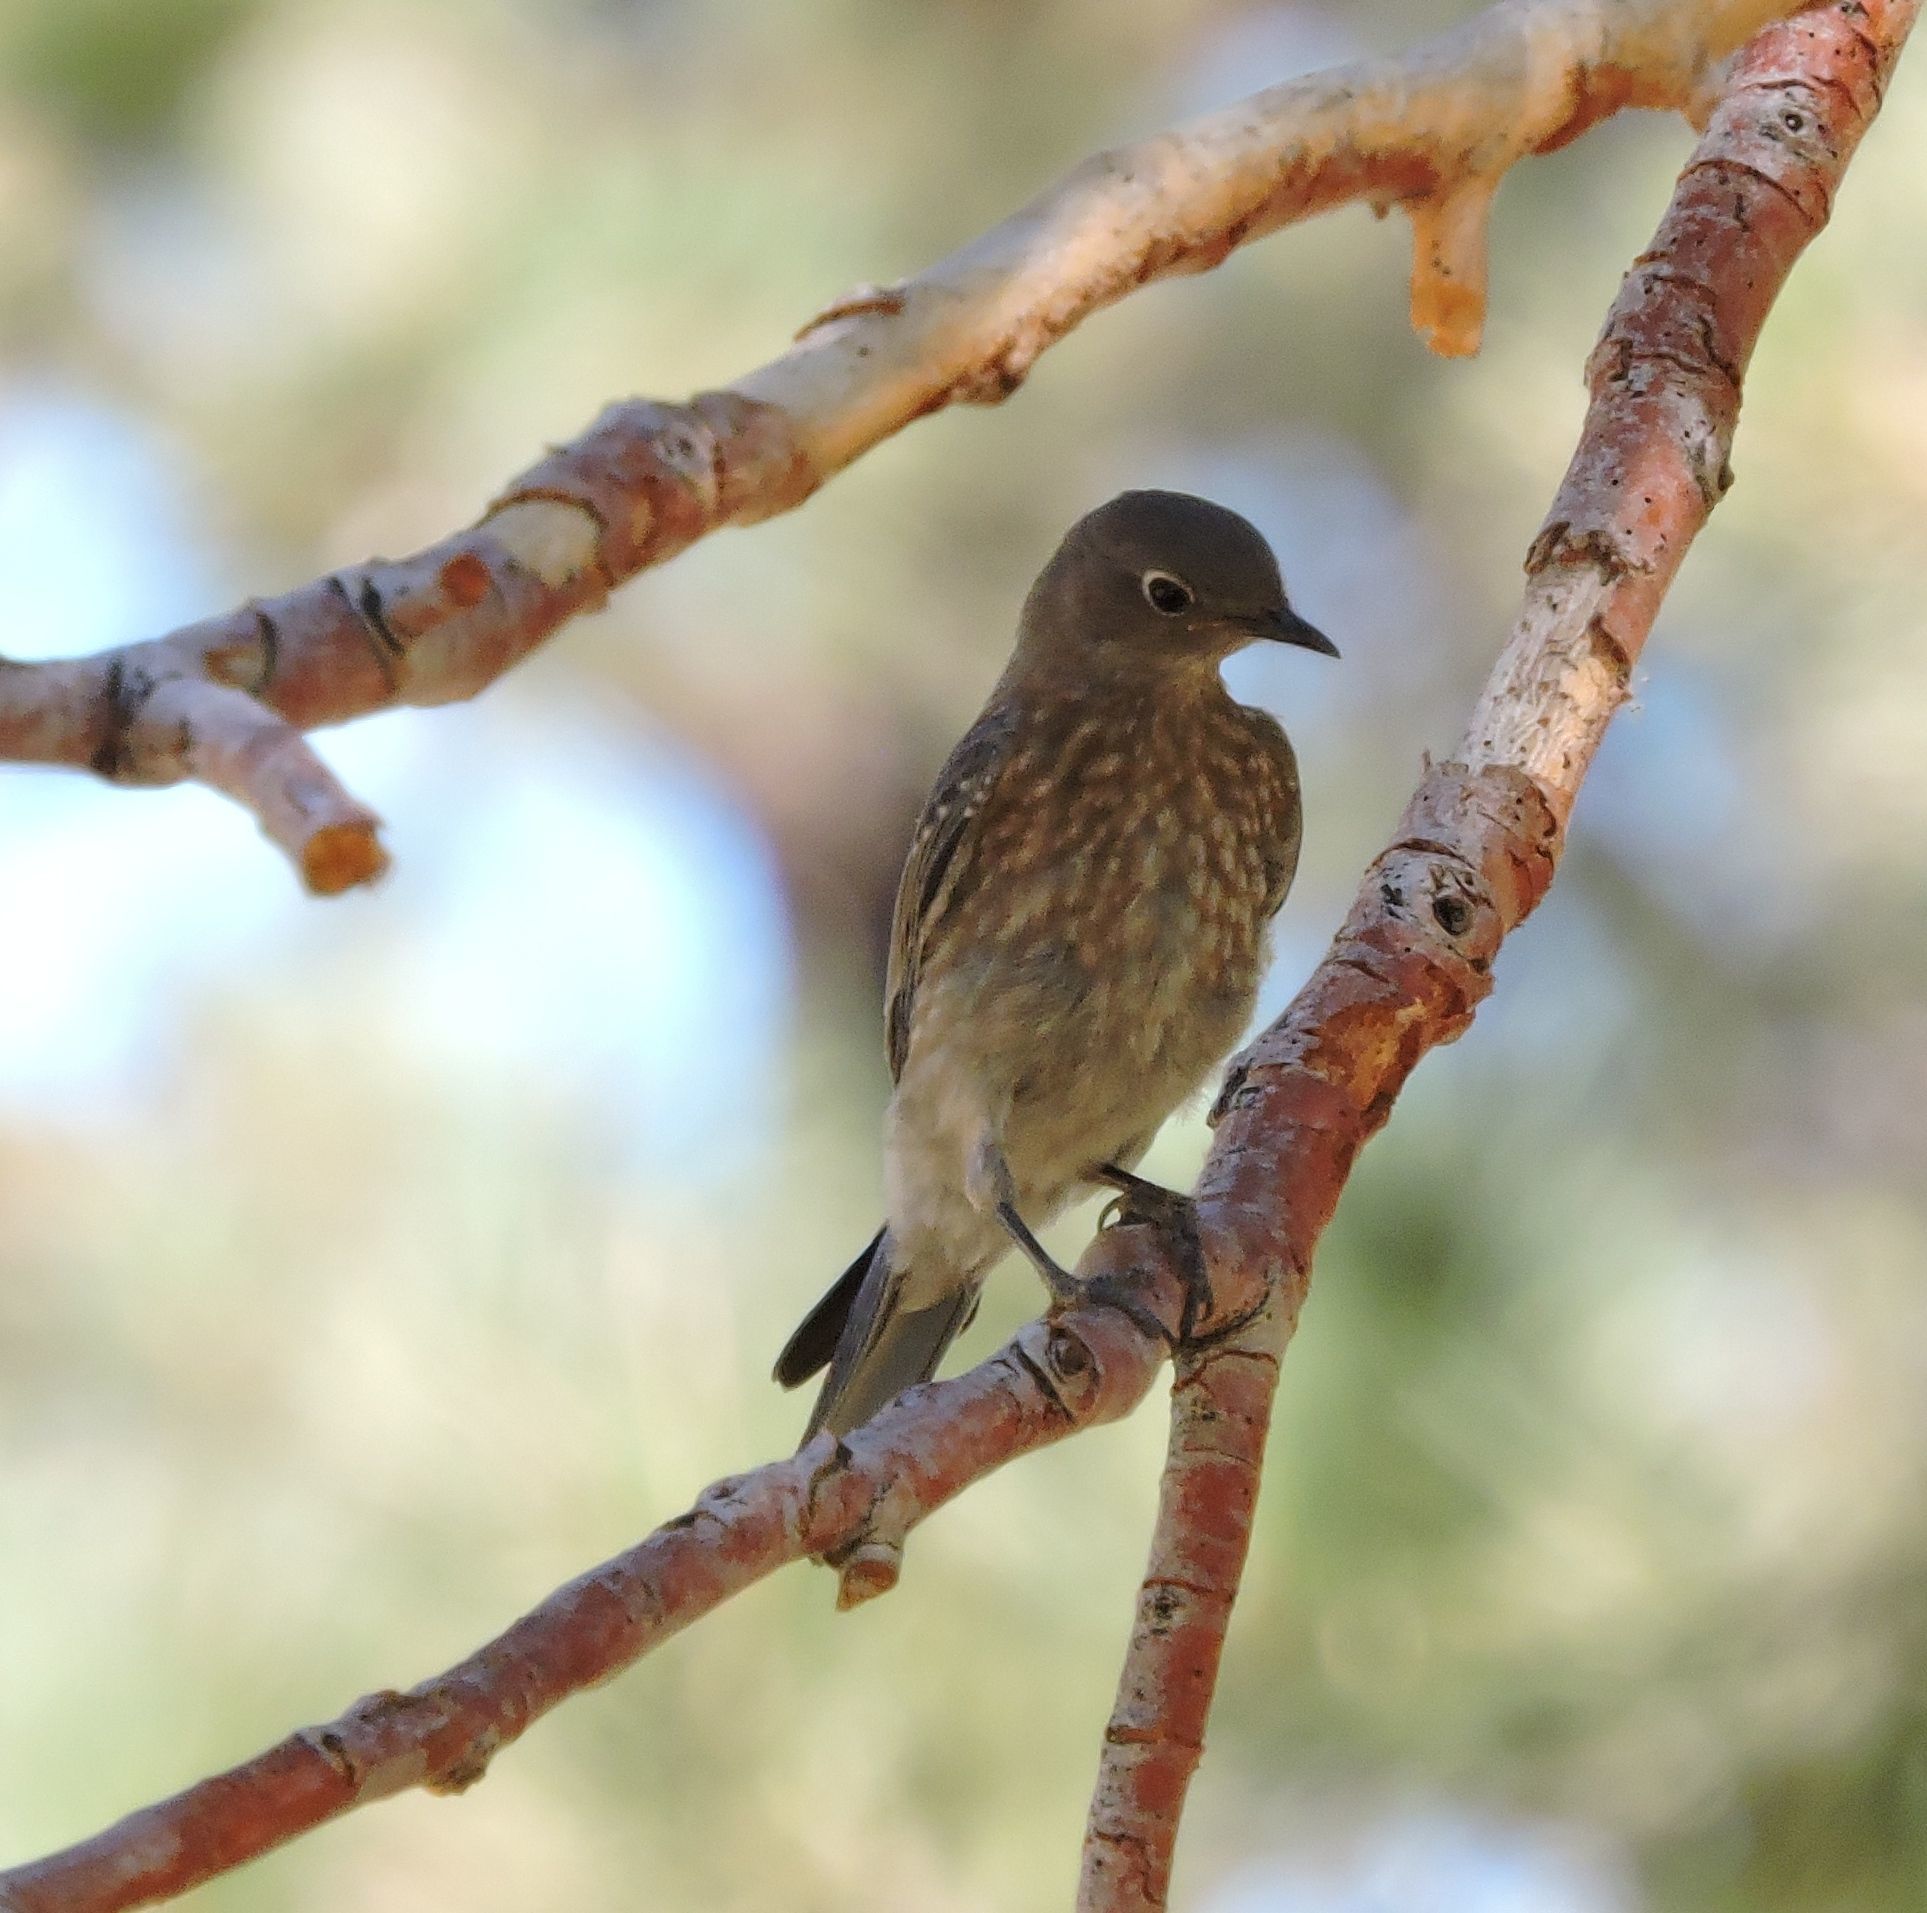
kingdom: Animalia
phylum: Chordata
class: Aves
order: Passeriformes
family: Turdidae
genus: Sialia
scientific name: Sialia mexicana
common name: Western bluebird
